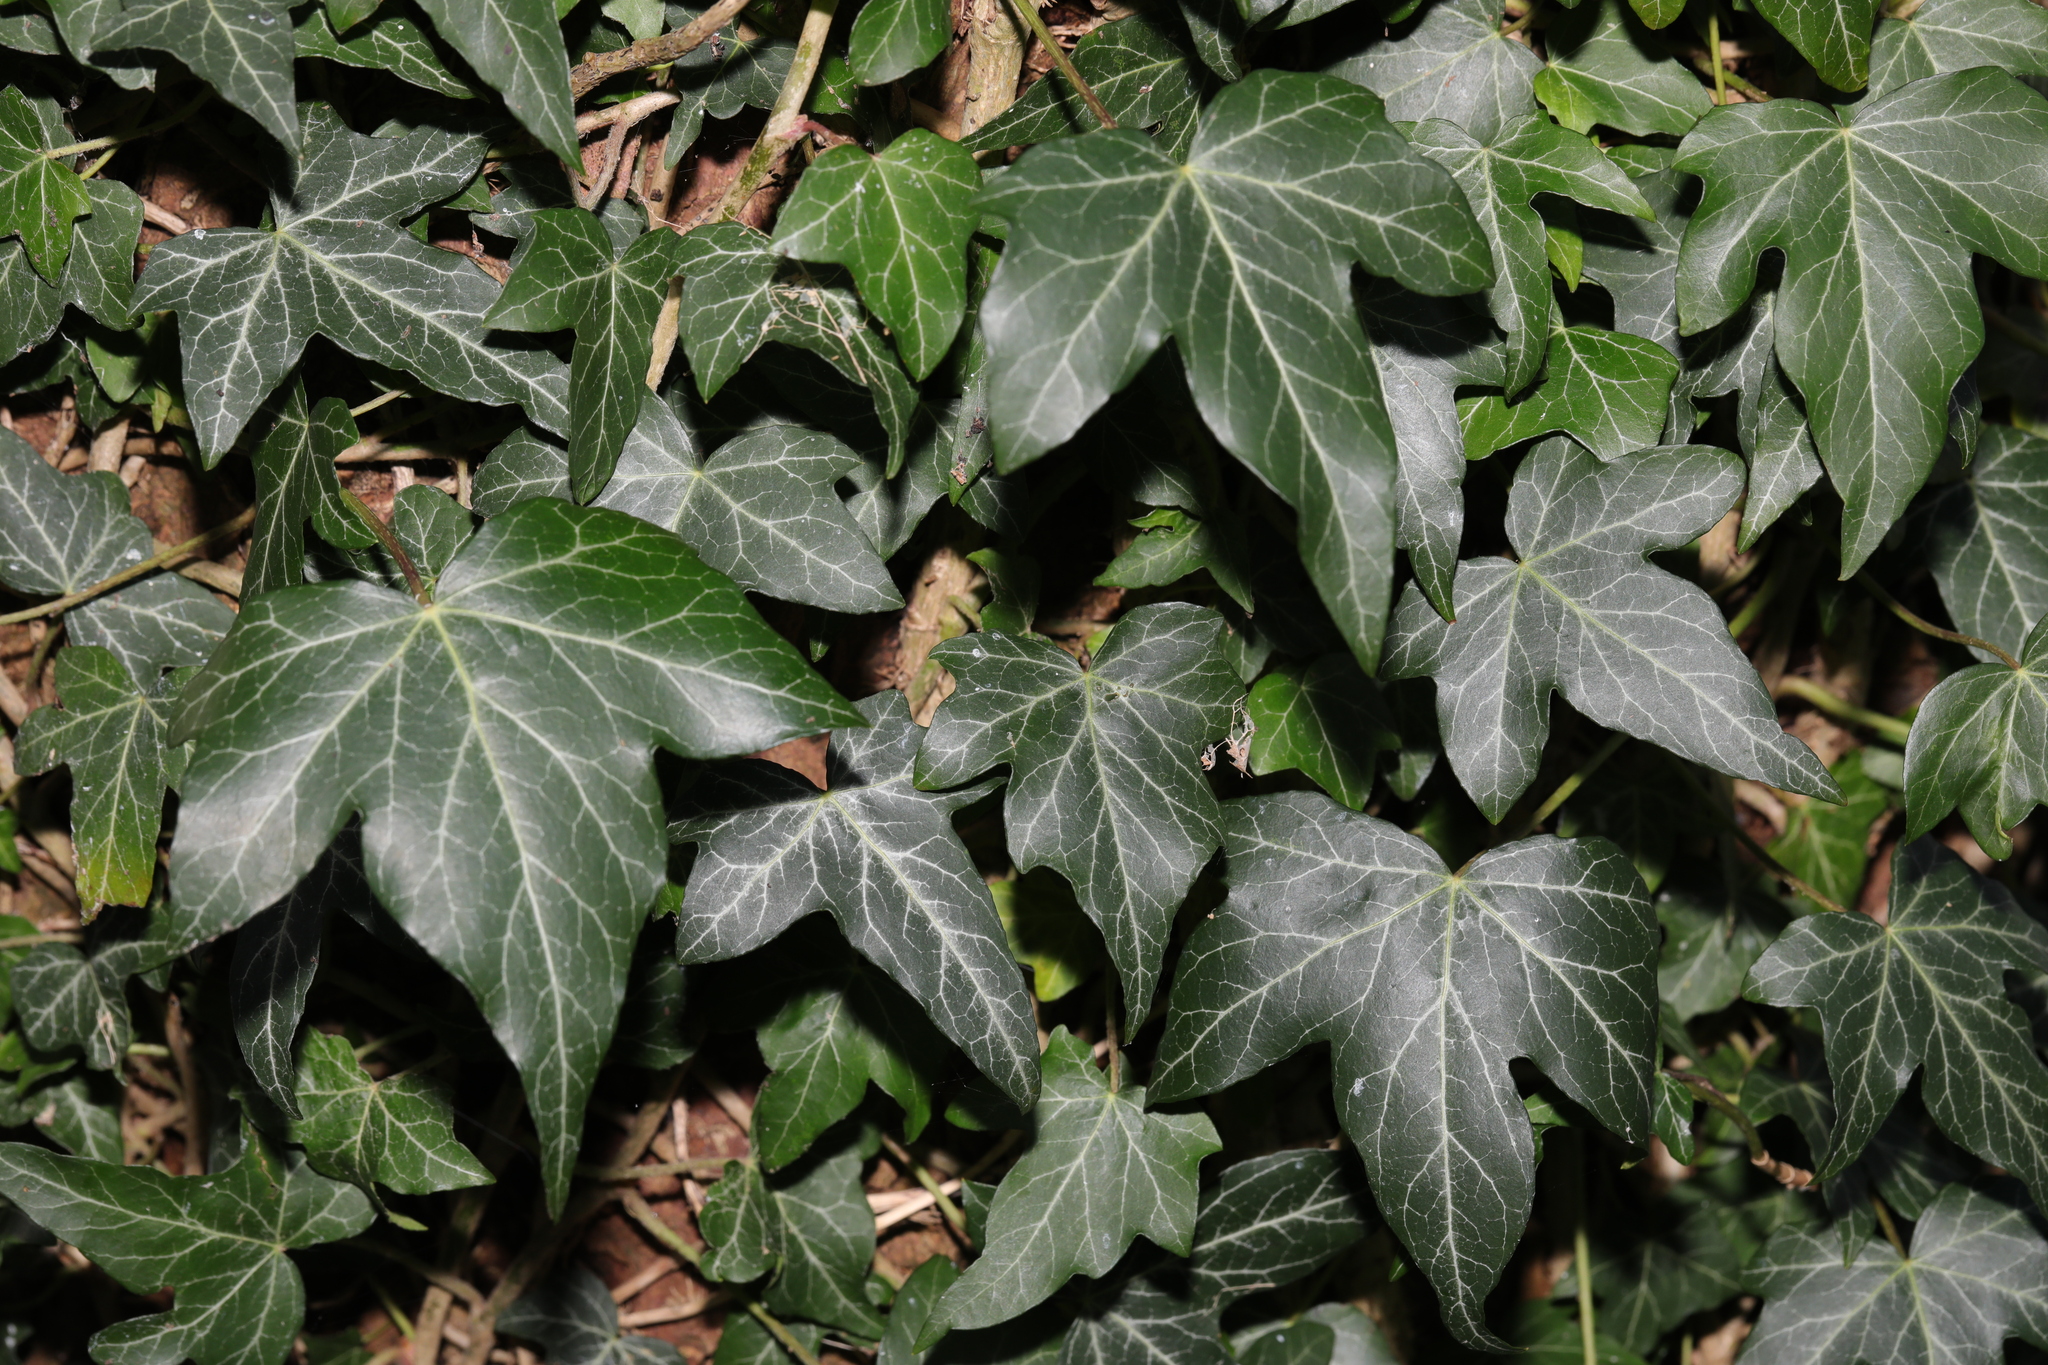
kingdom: Plantae
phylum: Tracheophyta
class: Magnoliopsida
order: Apiales
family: Araliaceae
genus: Hedera
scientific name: Hedera helix
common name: Ivy
